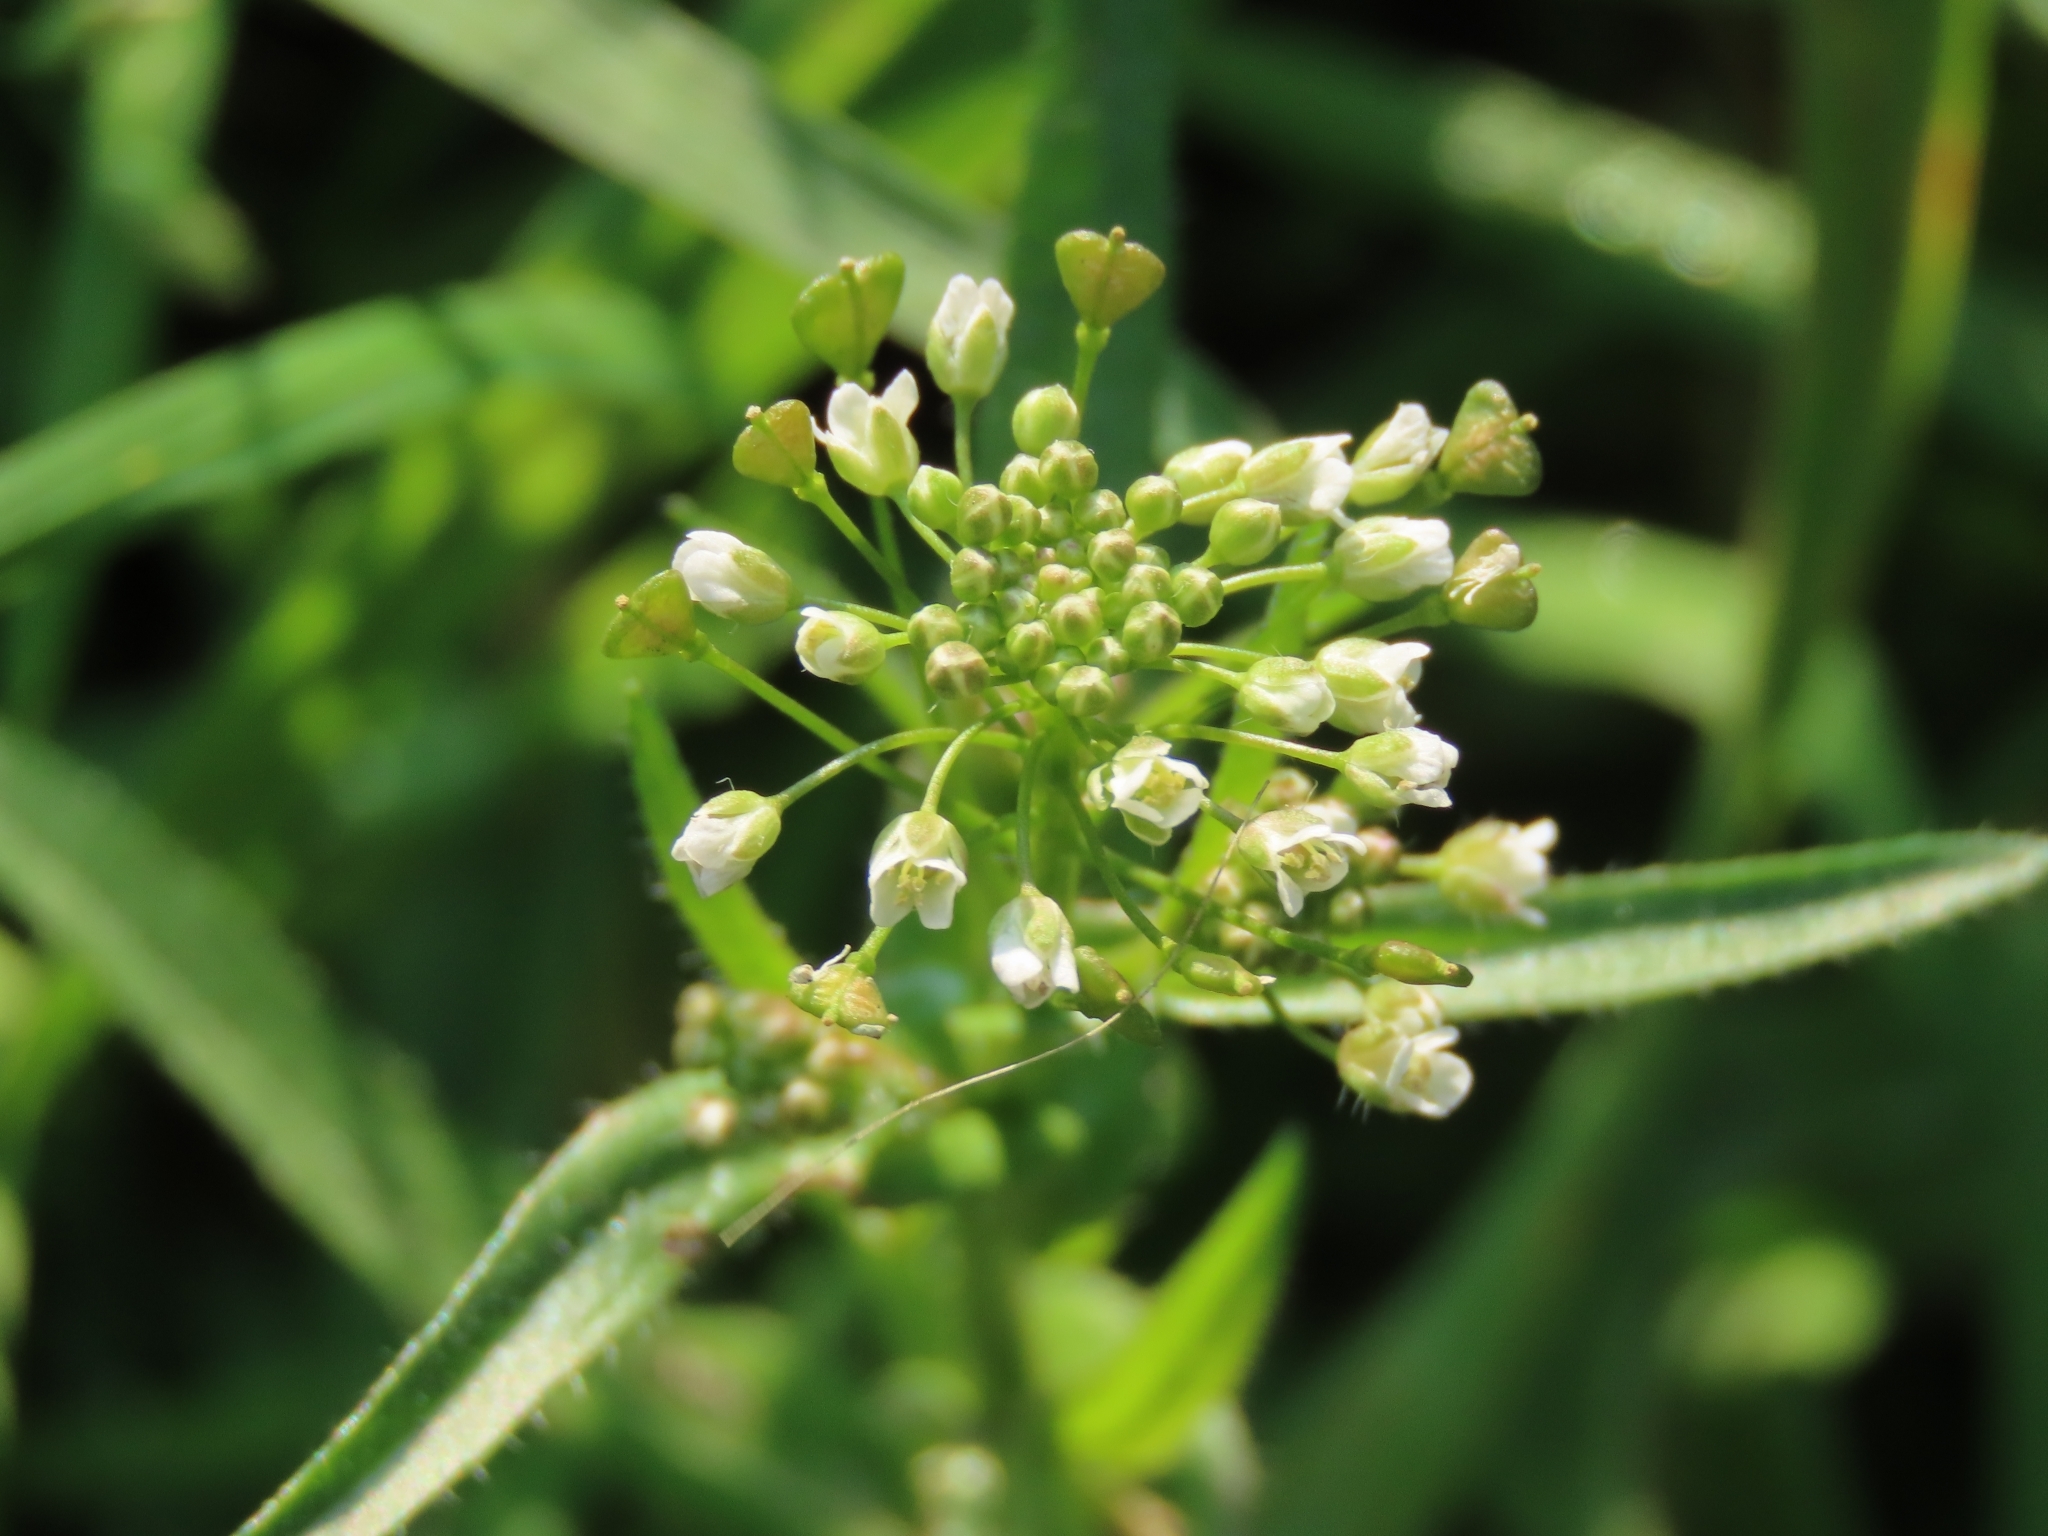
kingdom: Plantae
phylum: Tracheophyta
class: Magnoliopsida
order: Brassicales
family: Brassicaceae
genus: Capsella
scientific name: Capsella bursa-pastoris
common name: Shepherd's purse
